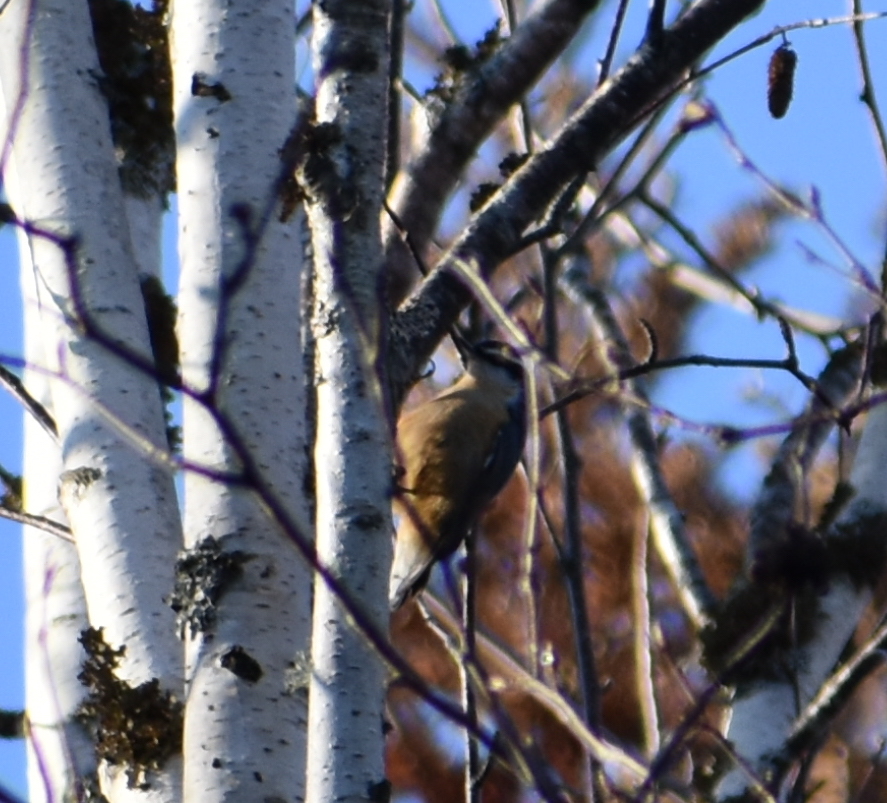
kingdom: Animalia
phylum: Chordata
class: Aves
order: Passeriformes
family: Sittidae
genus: Sitta
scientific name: Sitta canadensis
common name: Red-breasted nuthatch
